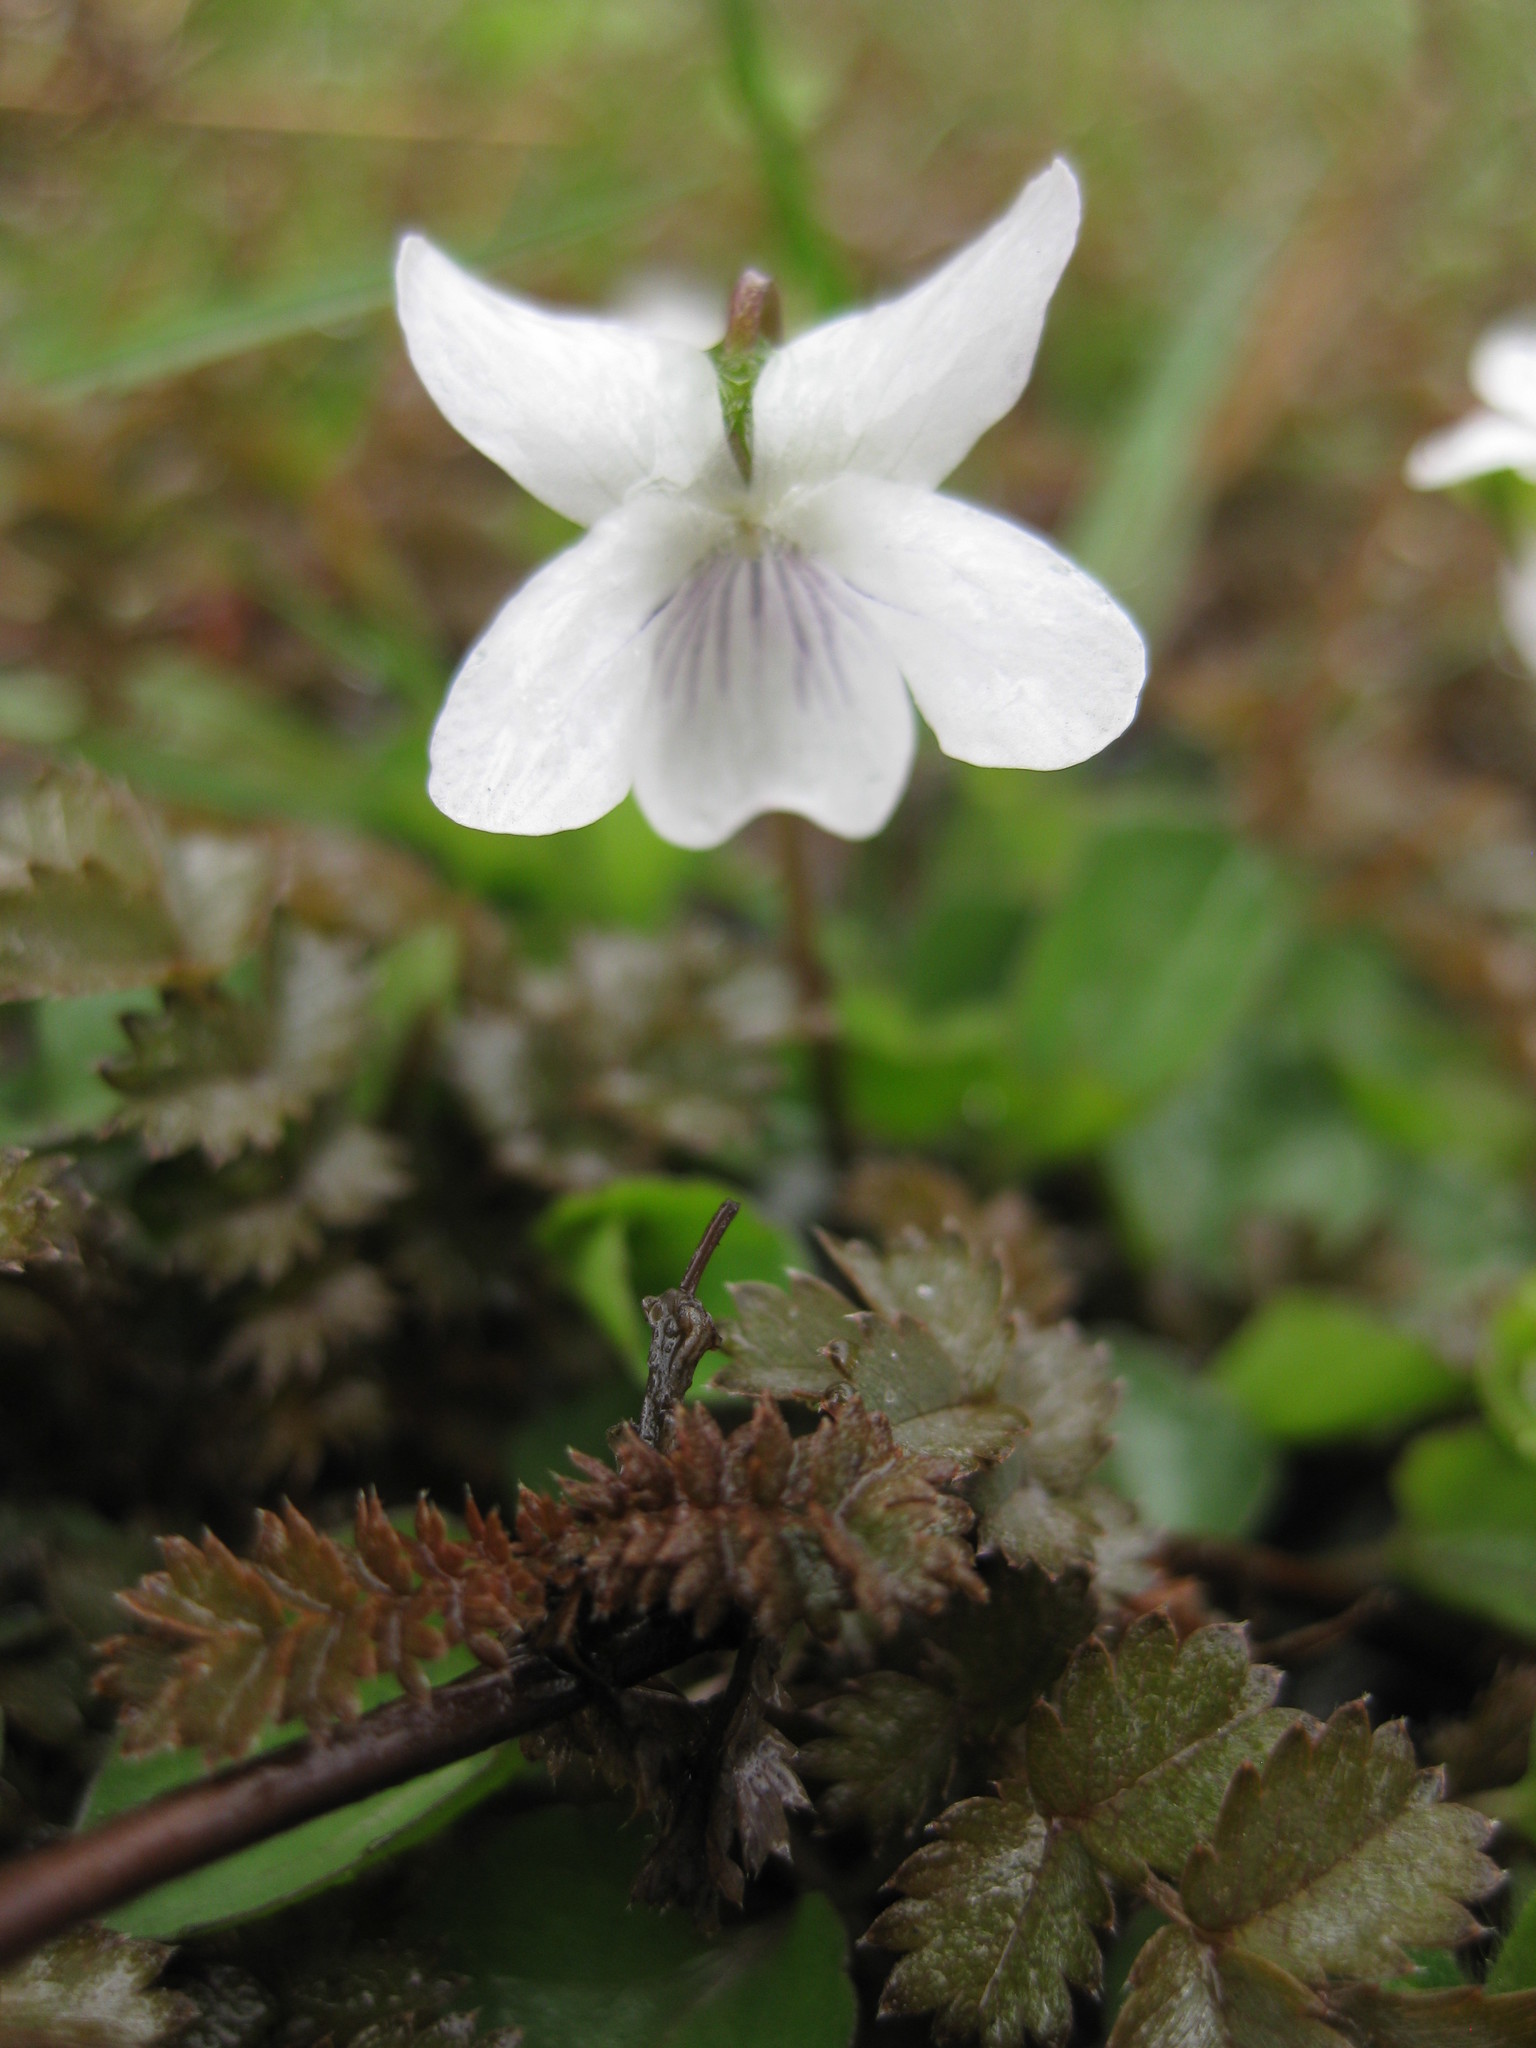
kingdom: Plantae
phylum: Tracheophyta
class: Magnoliopsida
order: Malpighiales
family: Violaceae
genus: Viola
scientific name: Viola cunninghamii
